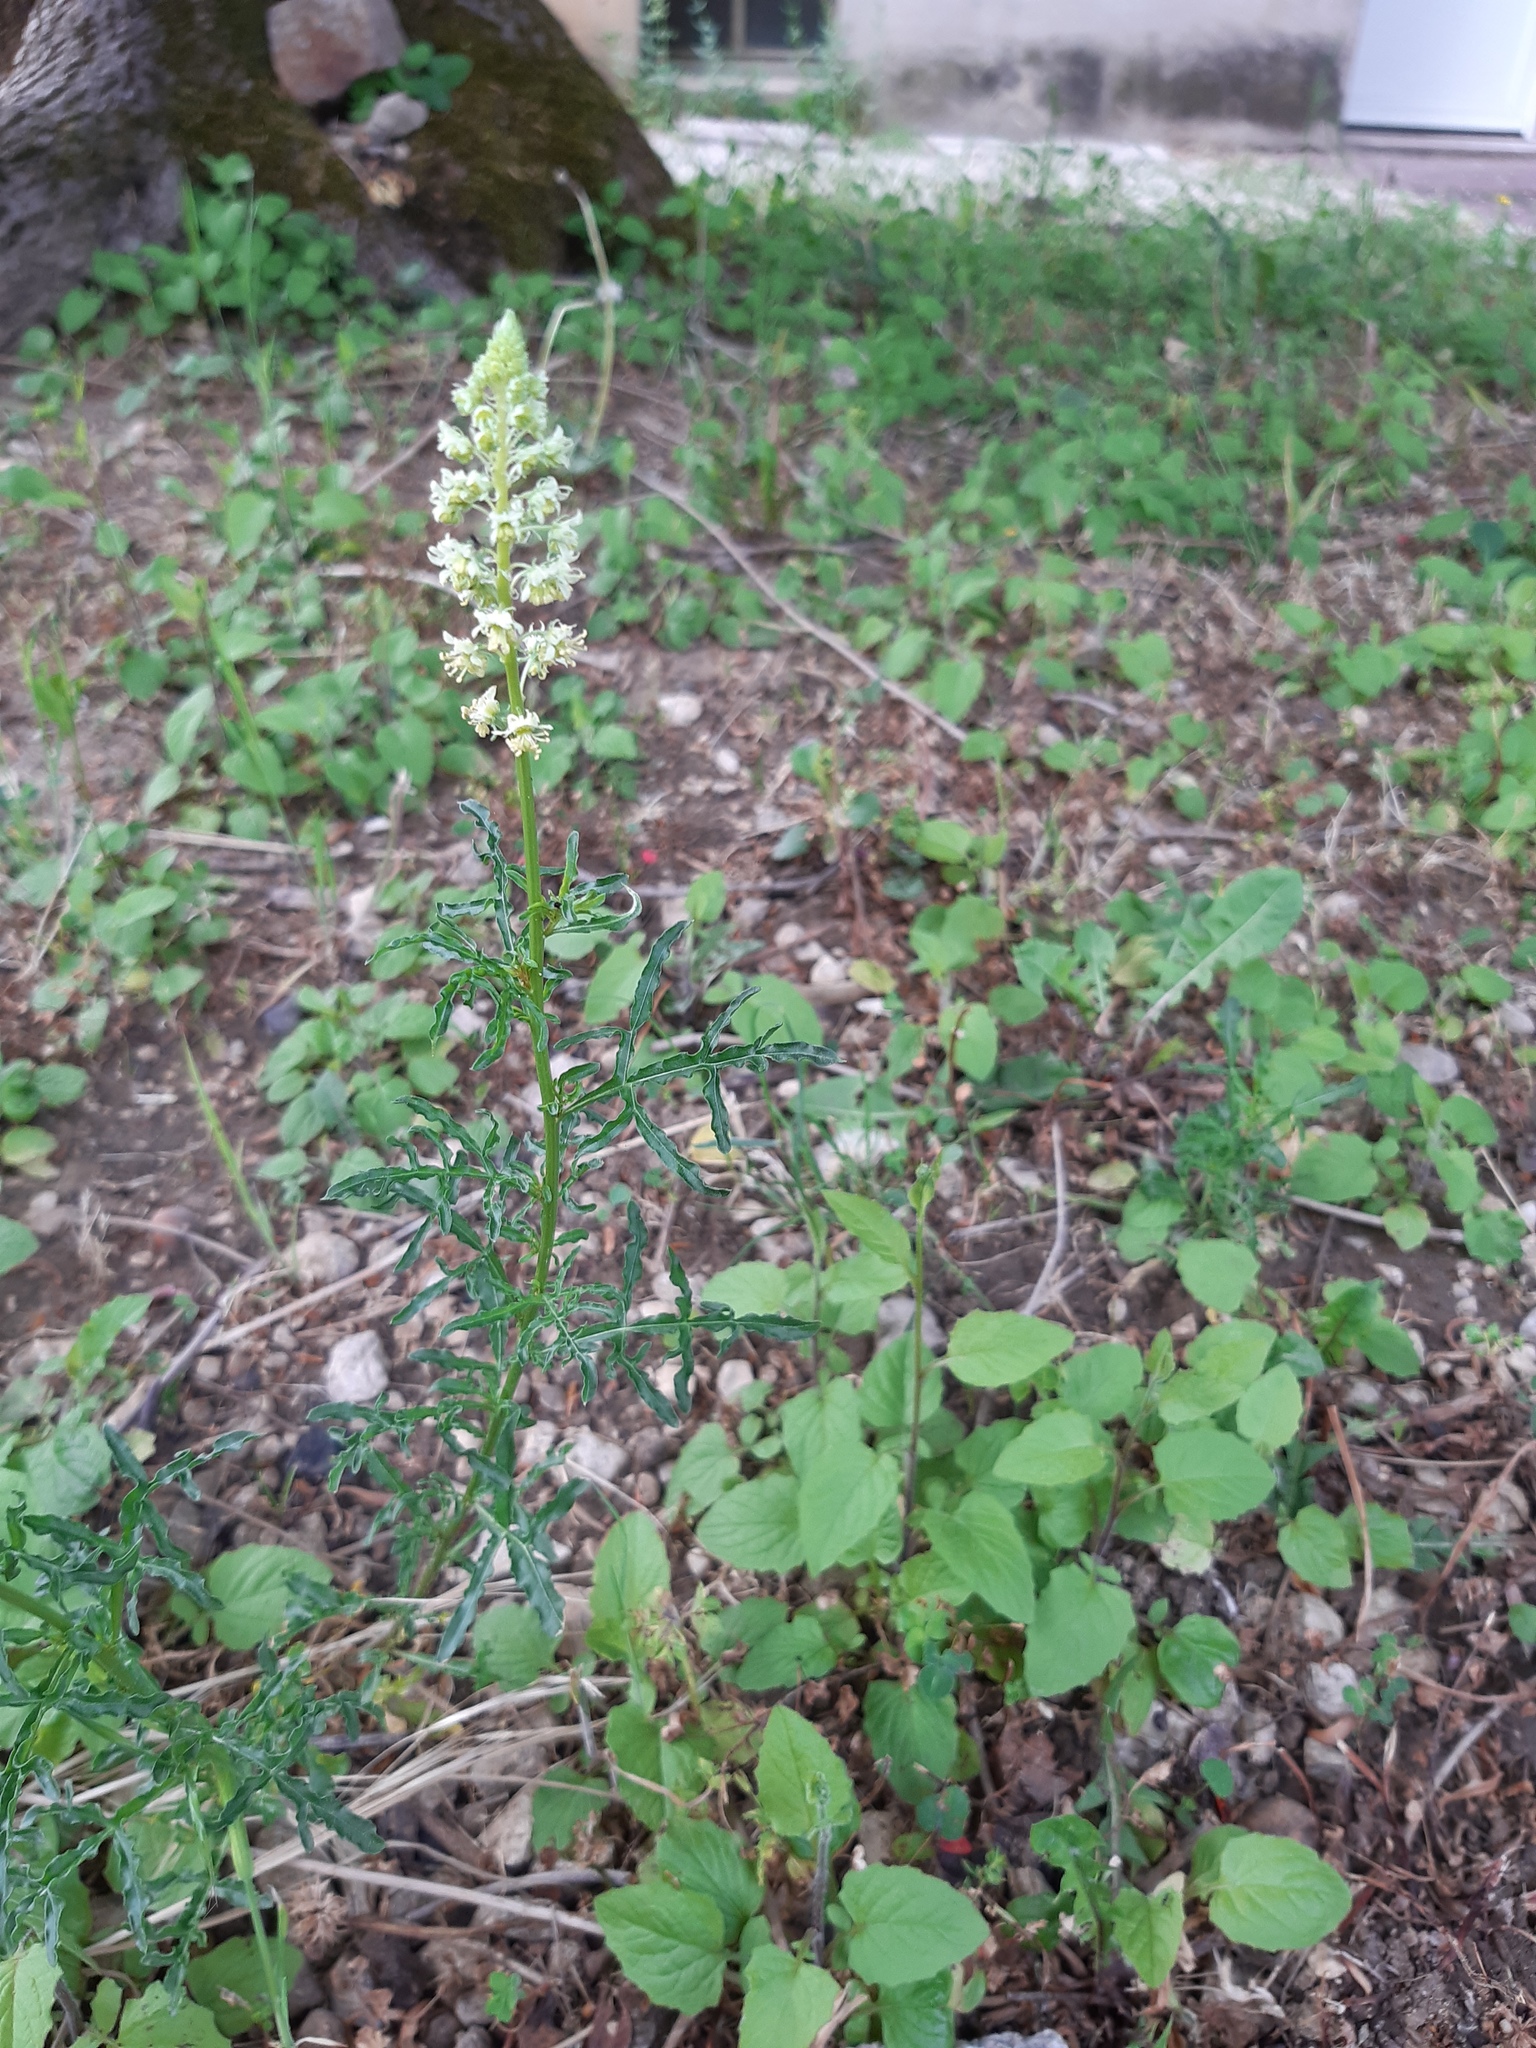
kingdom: Plantae
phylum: Tracheophyta
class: Magnoliopsida
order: Brassicales
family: Resedaceae
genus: Reseda
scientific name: Reseda lutea
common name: Wild mignonette
